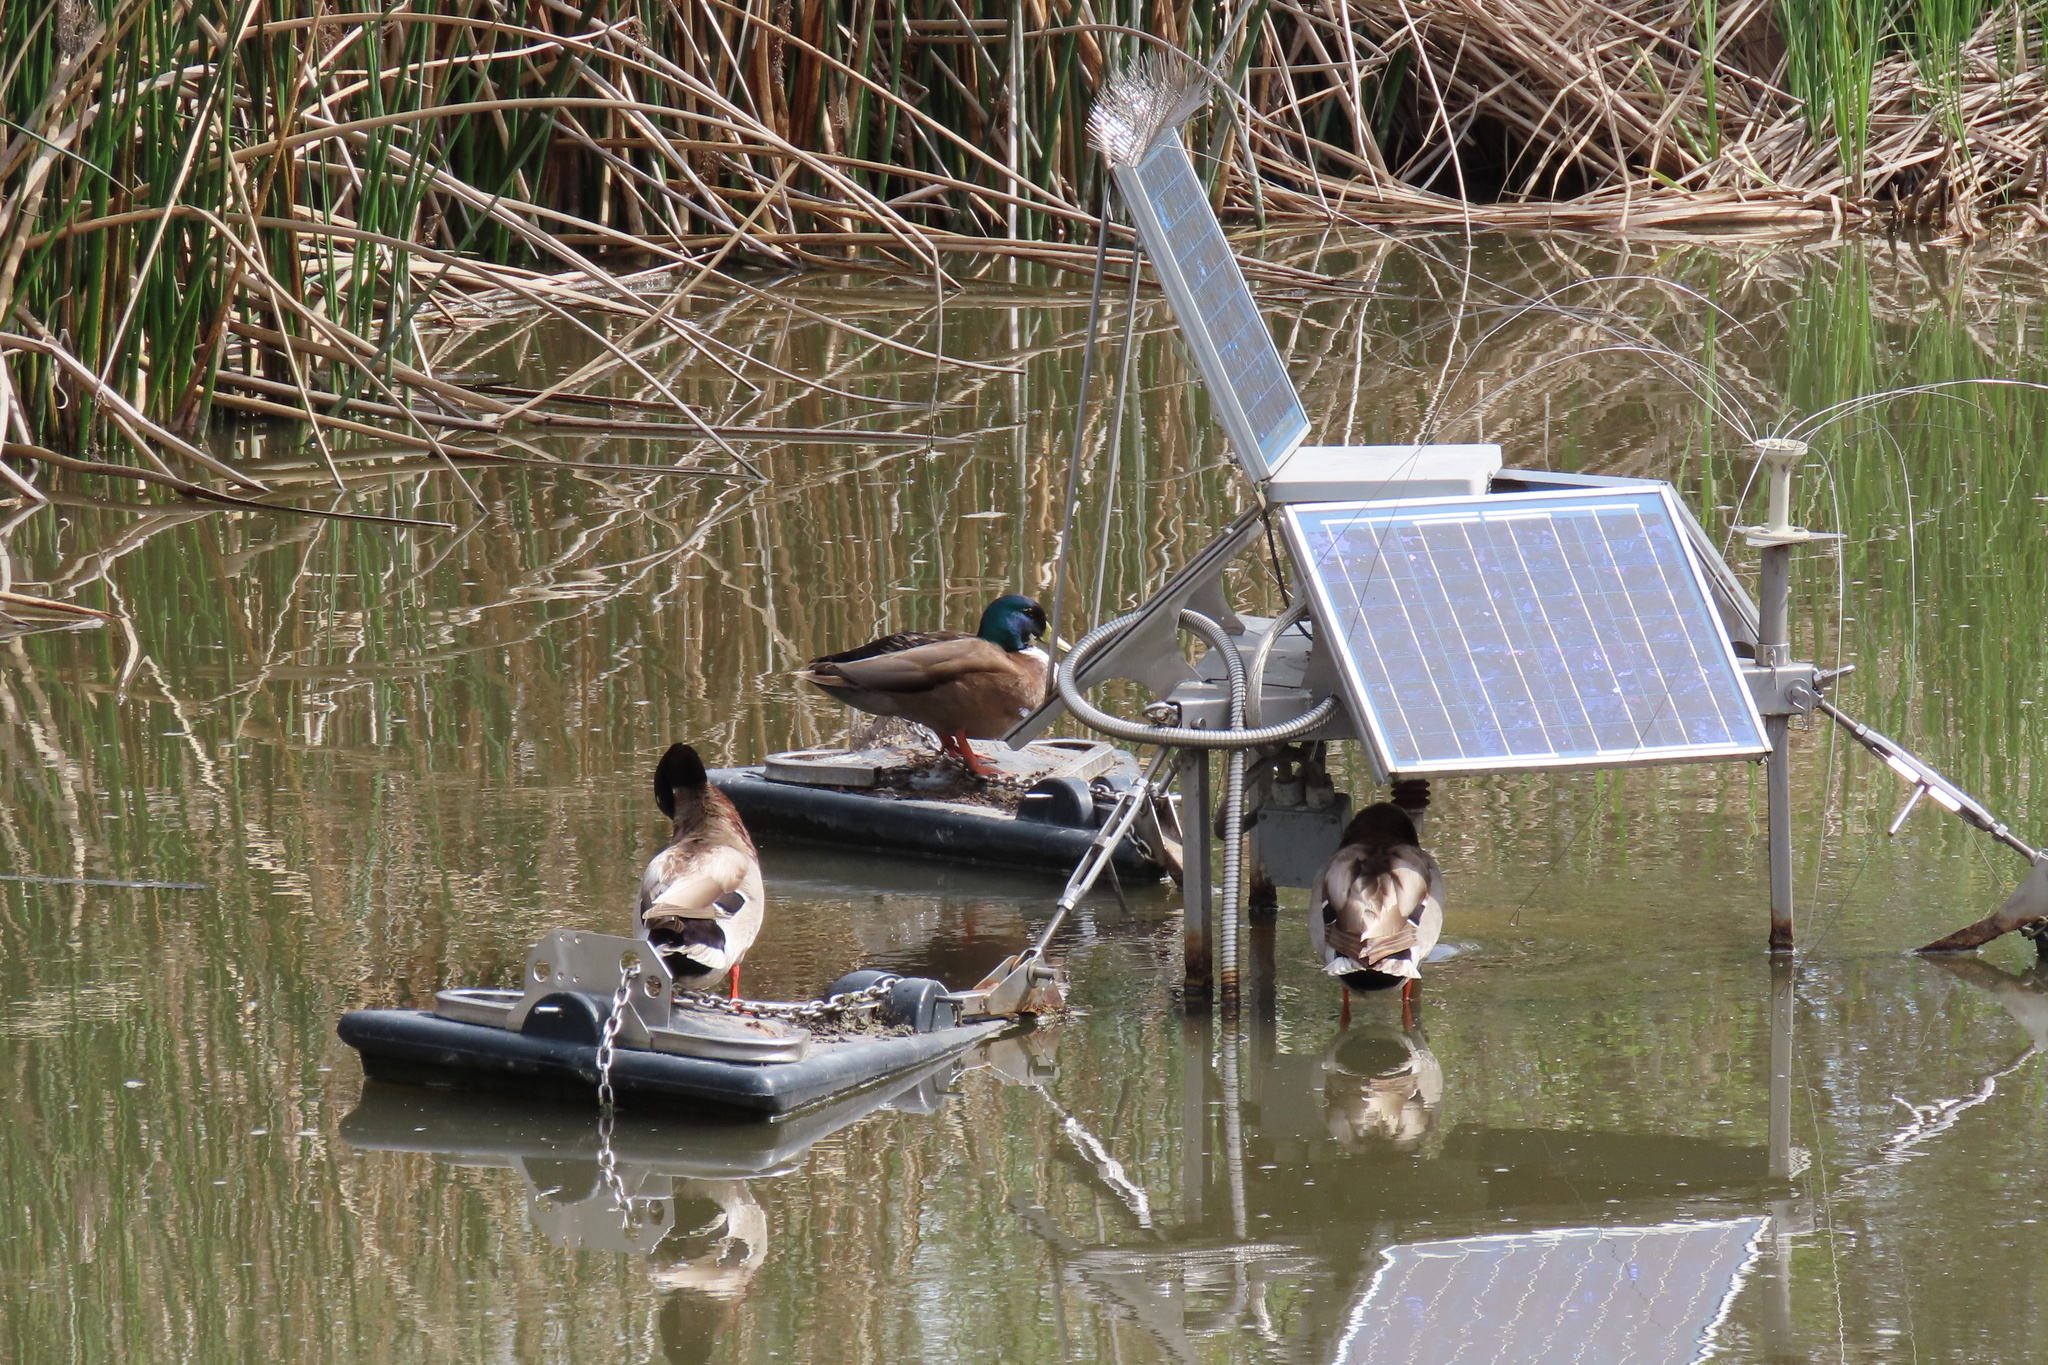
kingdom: Animalia
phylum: Chordata
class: Aves
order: Anseriformes
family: Anatidae
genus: Anas
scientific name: Anas platyrhynchos
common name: Mallard
